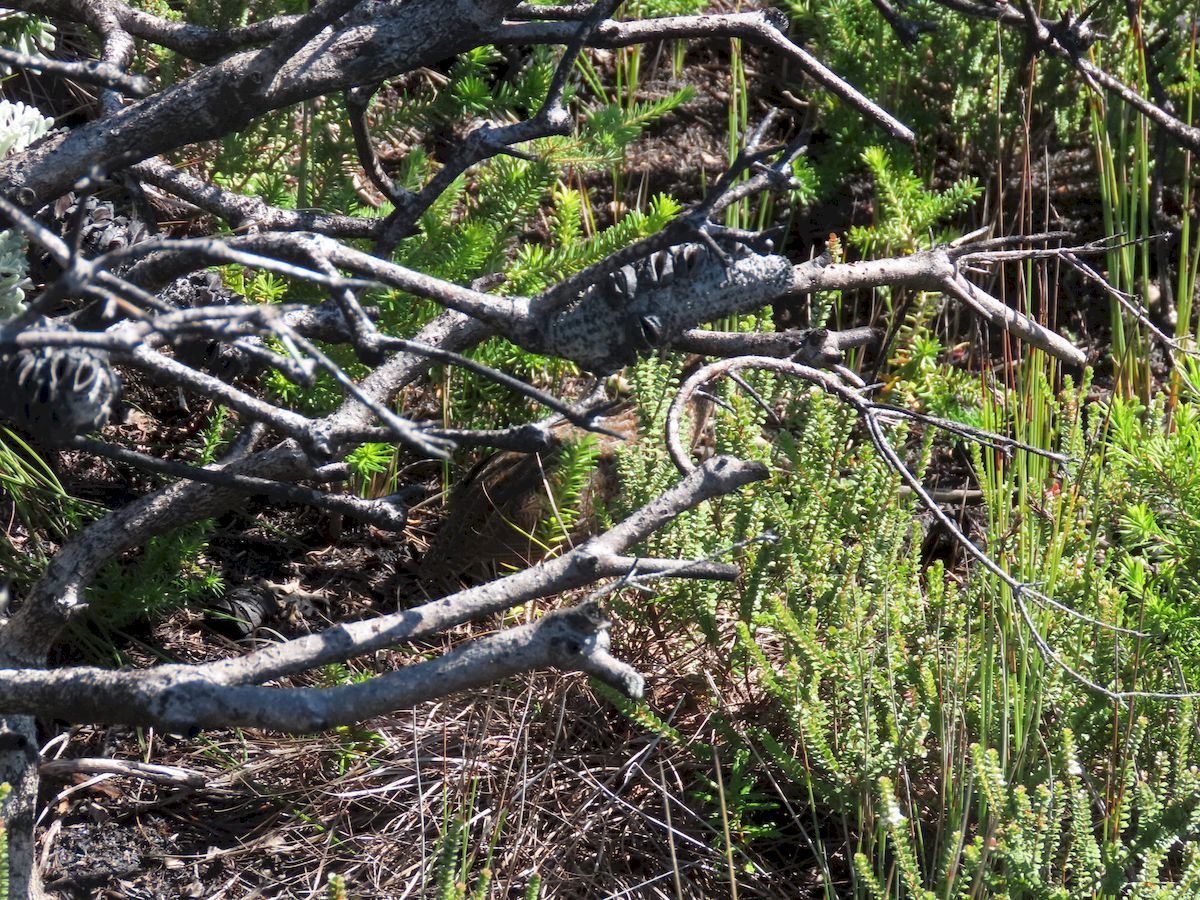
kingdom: Animalia
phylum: Chordata
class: Aves
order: Galliformes
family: Phasianidae
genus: Synoicus
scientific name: Synoicus ypsilophorus
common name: Brown quail
